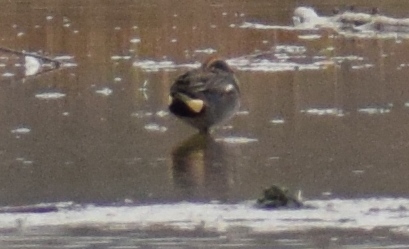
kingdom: Animalia
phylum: Chordata
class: Aves
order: Anseriformes
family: Anatidae
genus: Anas
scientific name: Anas crecca
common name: Eurasian teal
